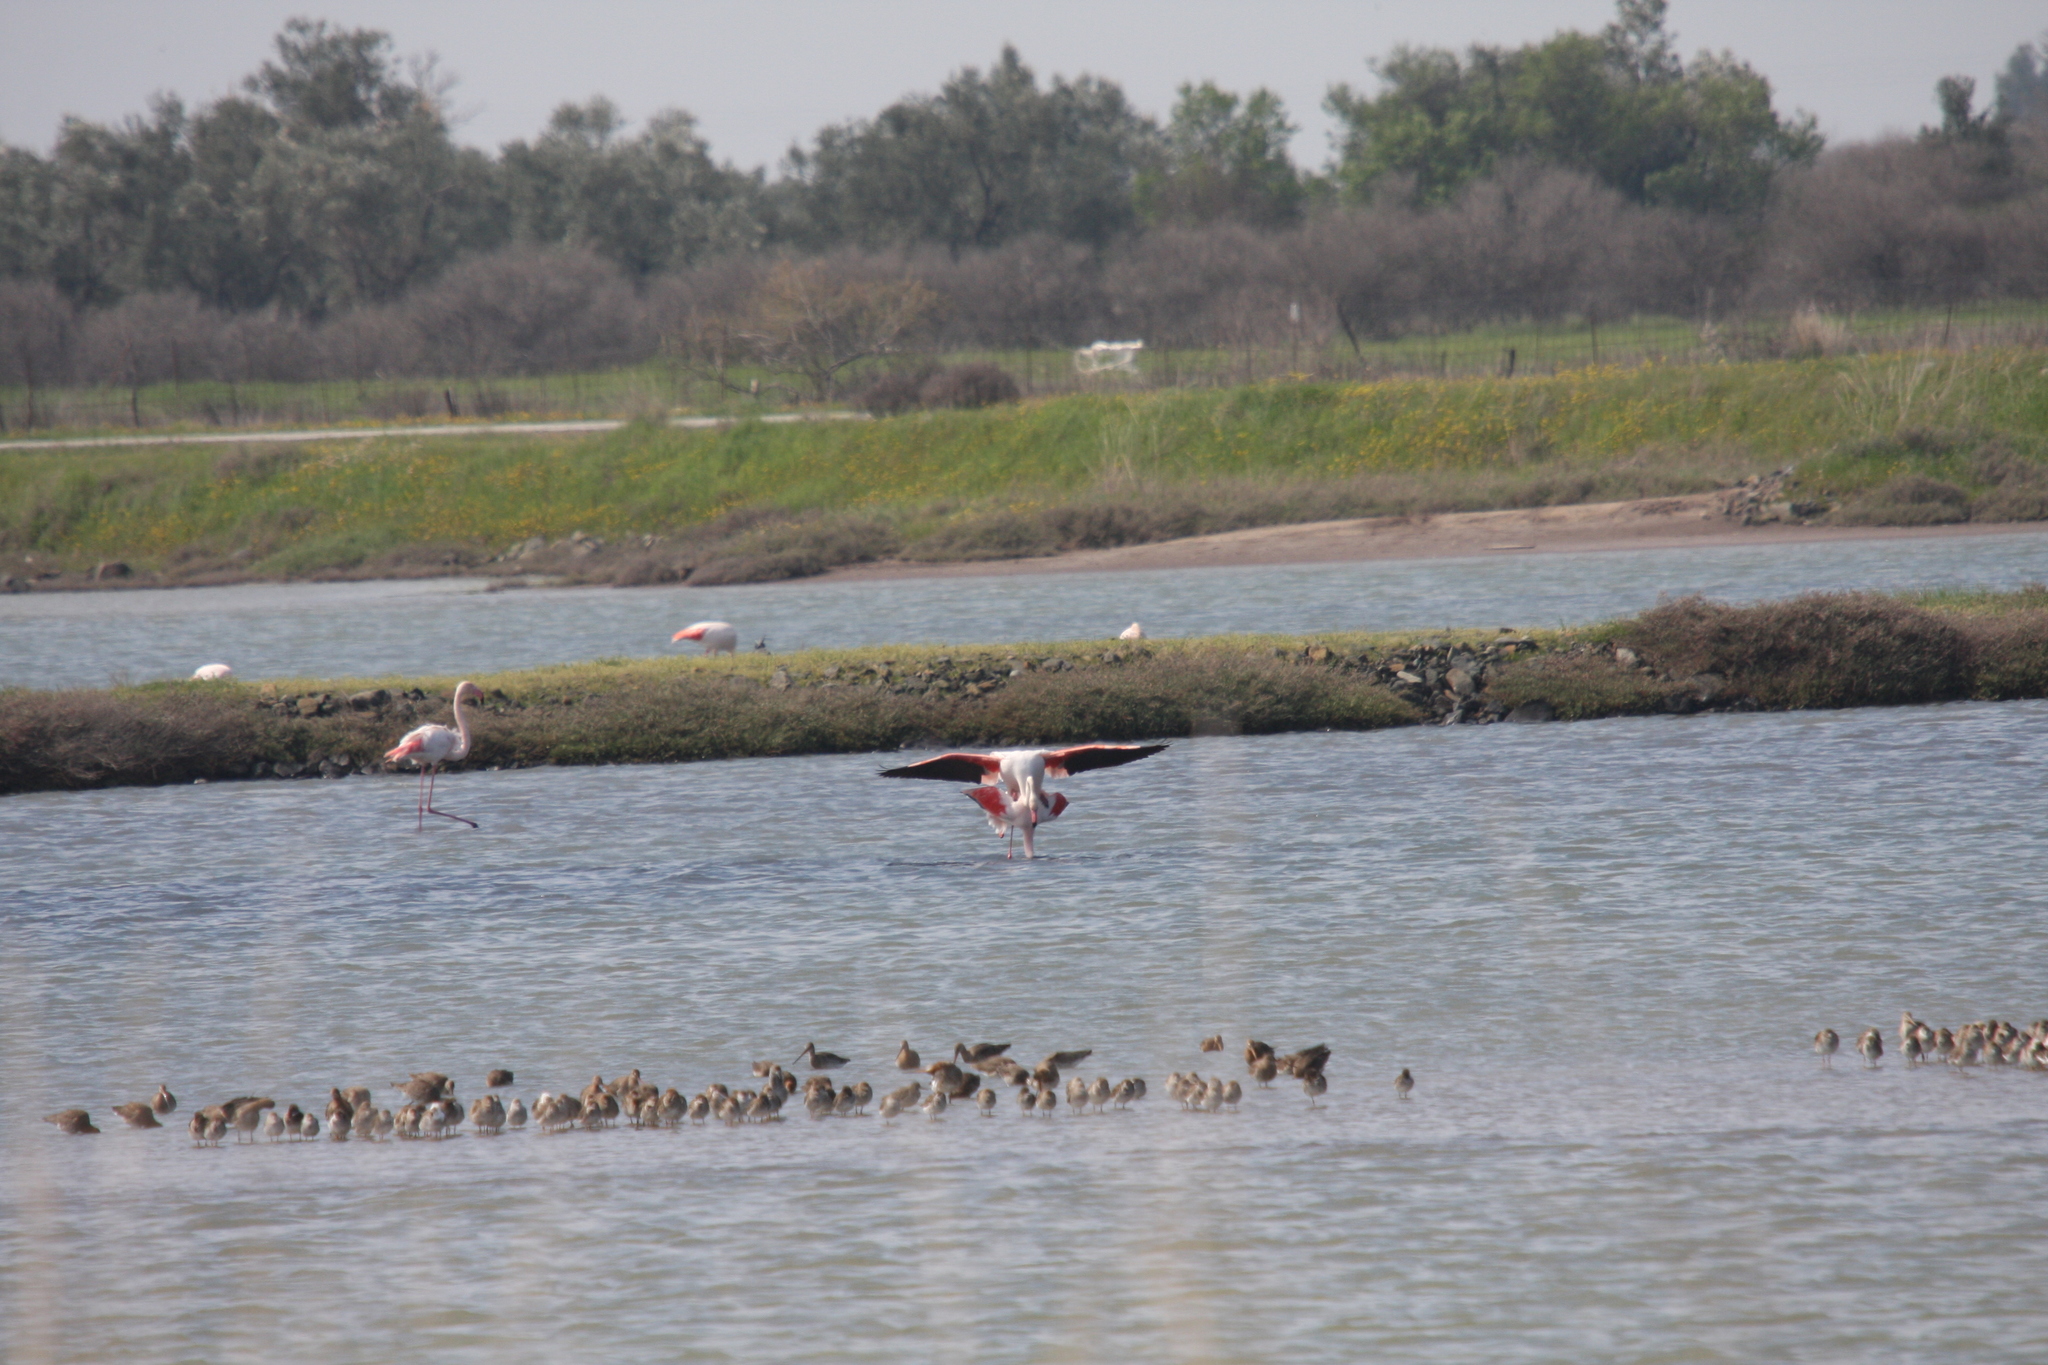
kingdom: Animalia
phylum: Chordata
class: Aves
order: Phoenicopteriformes
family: Phoenicopteridae
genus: Phoenicopterus
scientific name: Phoenicopterus roseus
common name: Greater flamingo
